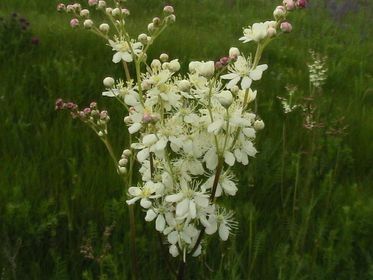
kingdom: Plantae
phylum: Tracheophyta
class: Magnoliopsida
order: Rosales
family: Rosaceae
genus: Filipendula
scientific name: Filipendula vulgaris
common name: Dropwort
